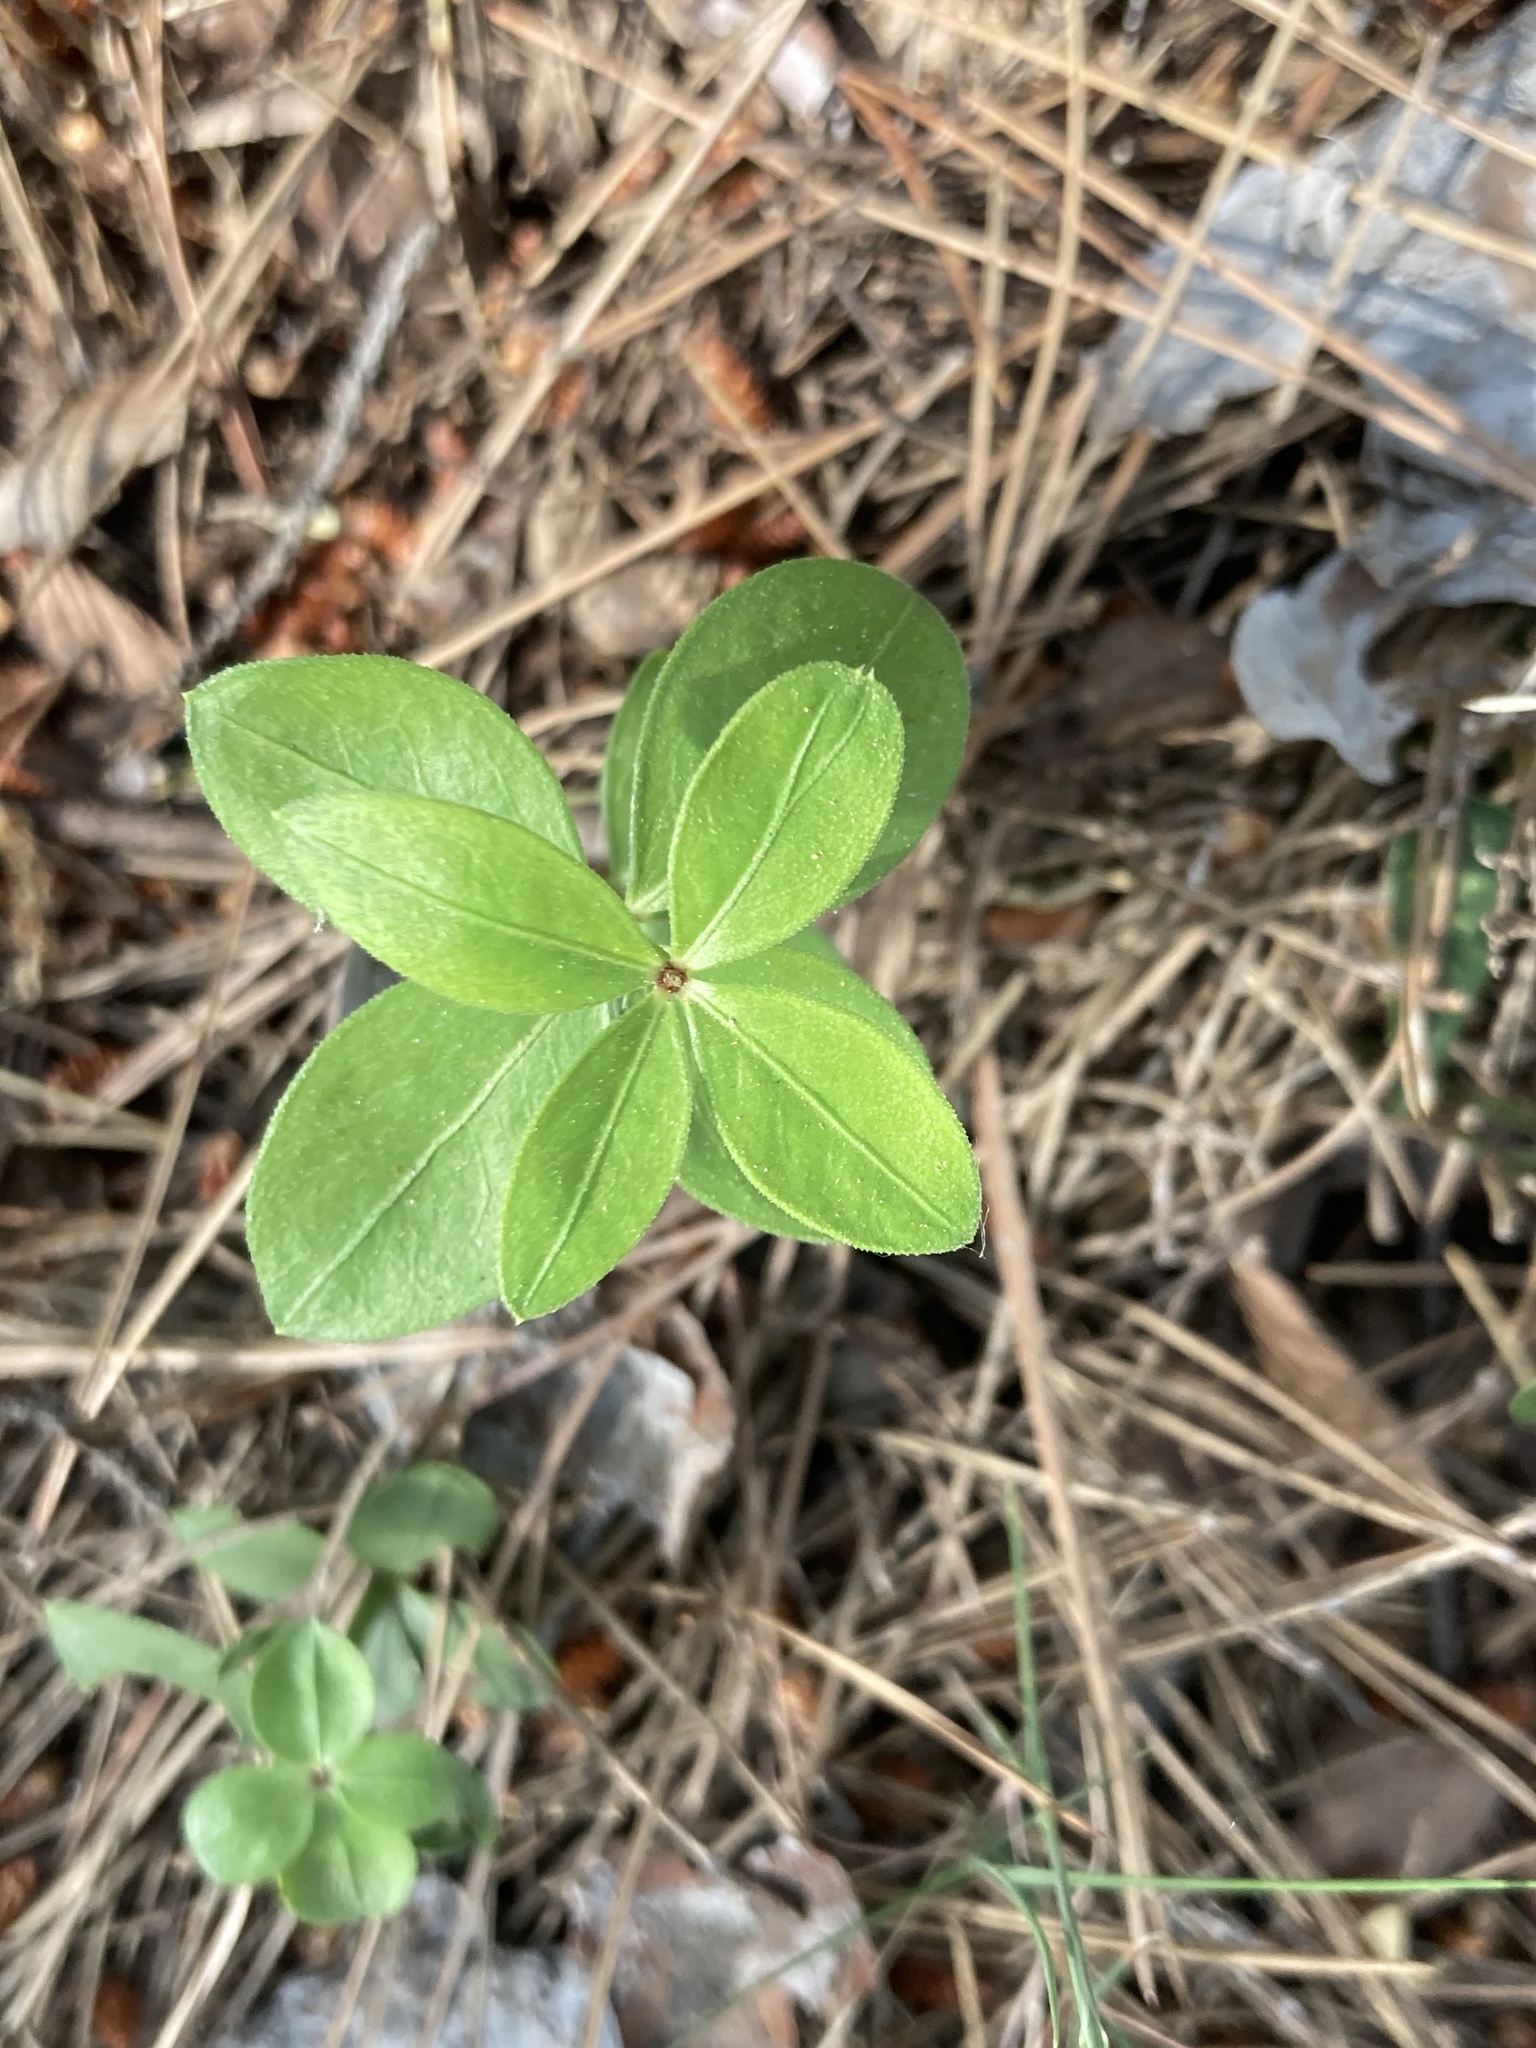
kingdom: Plantae
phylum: Tracheophyta
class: Magnoliopsida
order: Gentianales
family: Rubiaceae
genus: Rubia
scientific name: Rubia peregrina
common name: Wild madder
